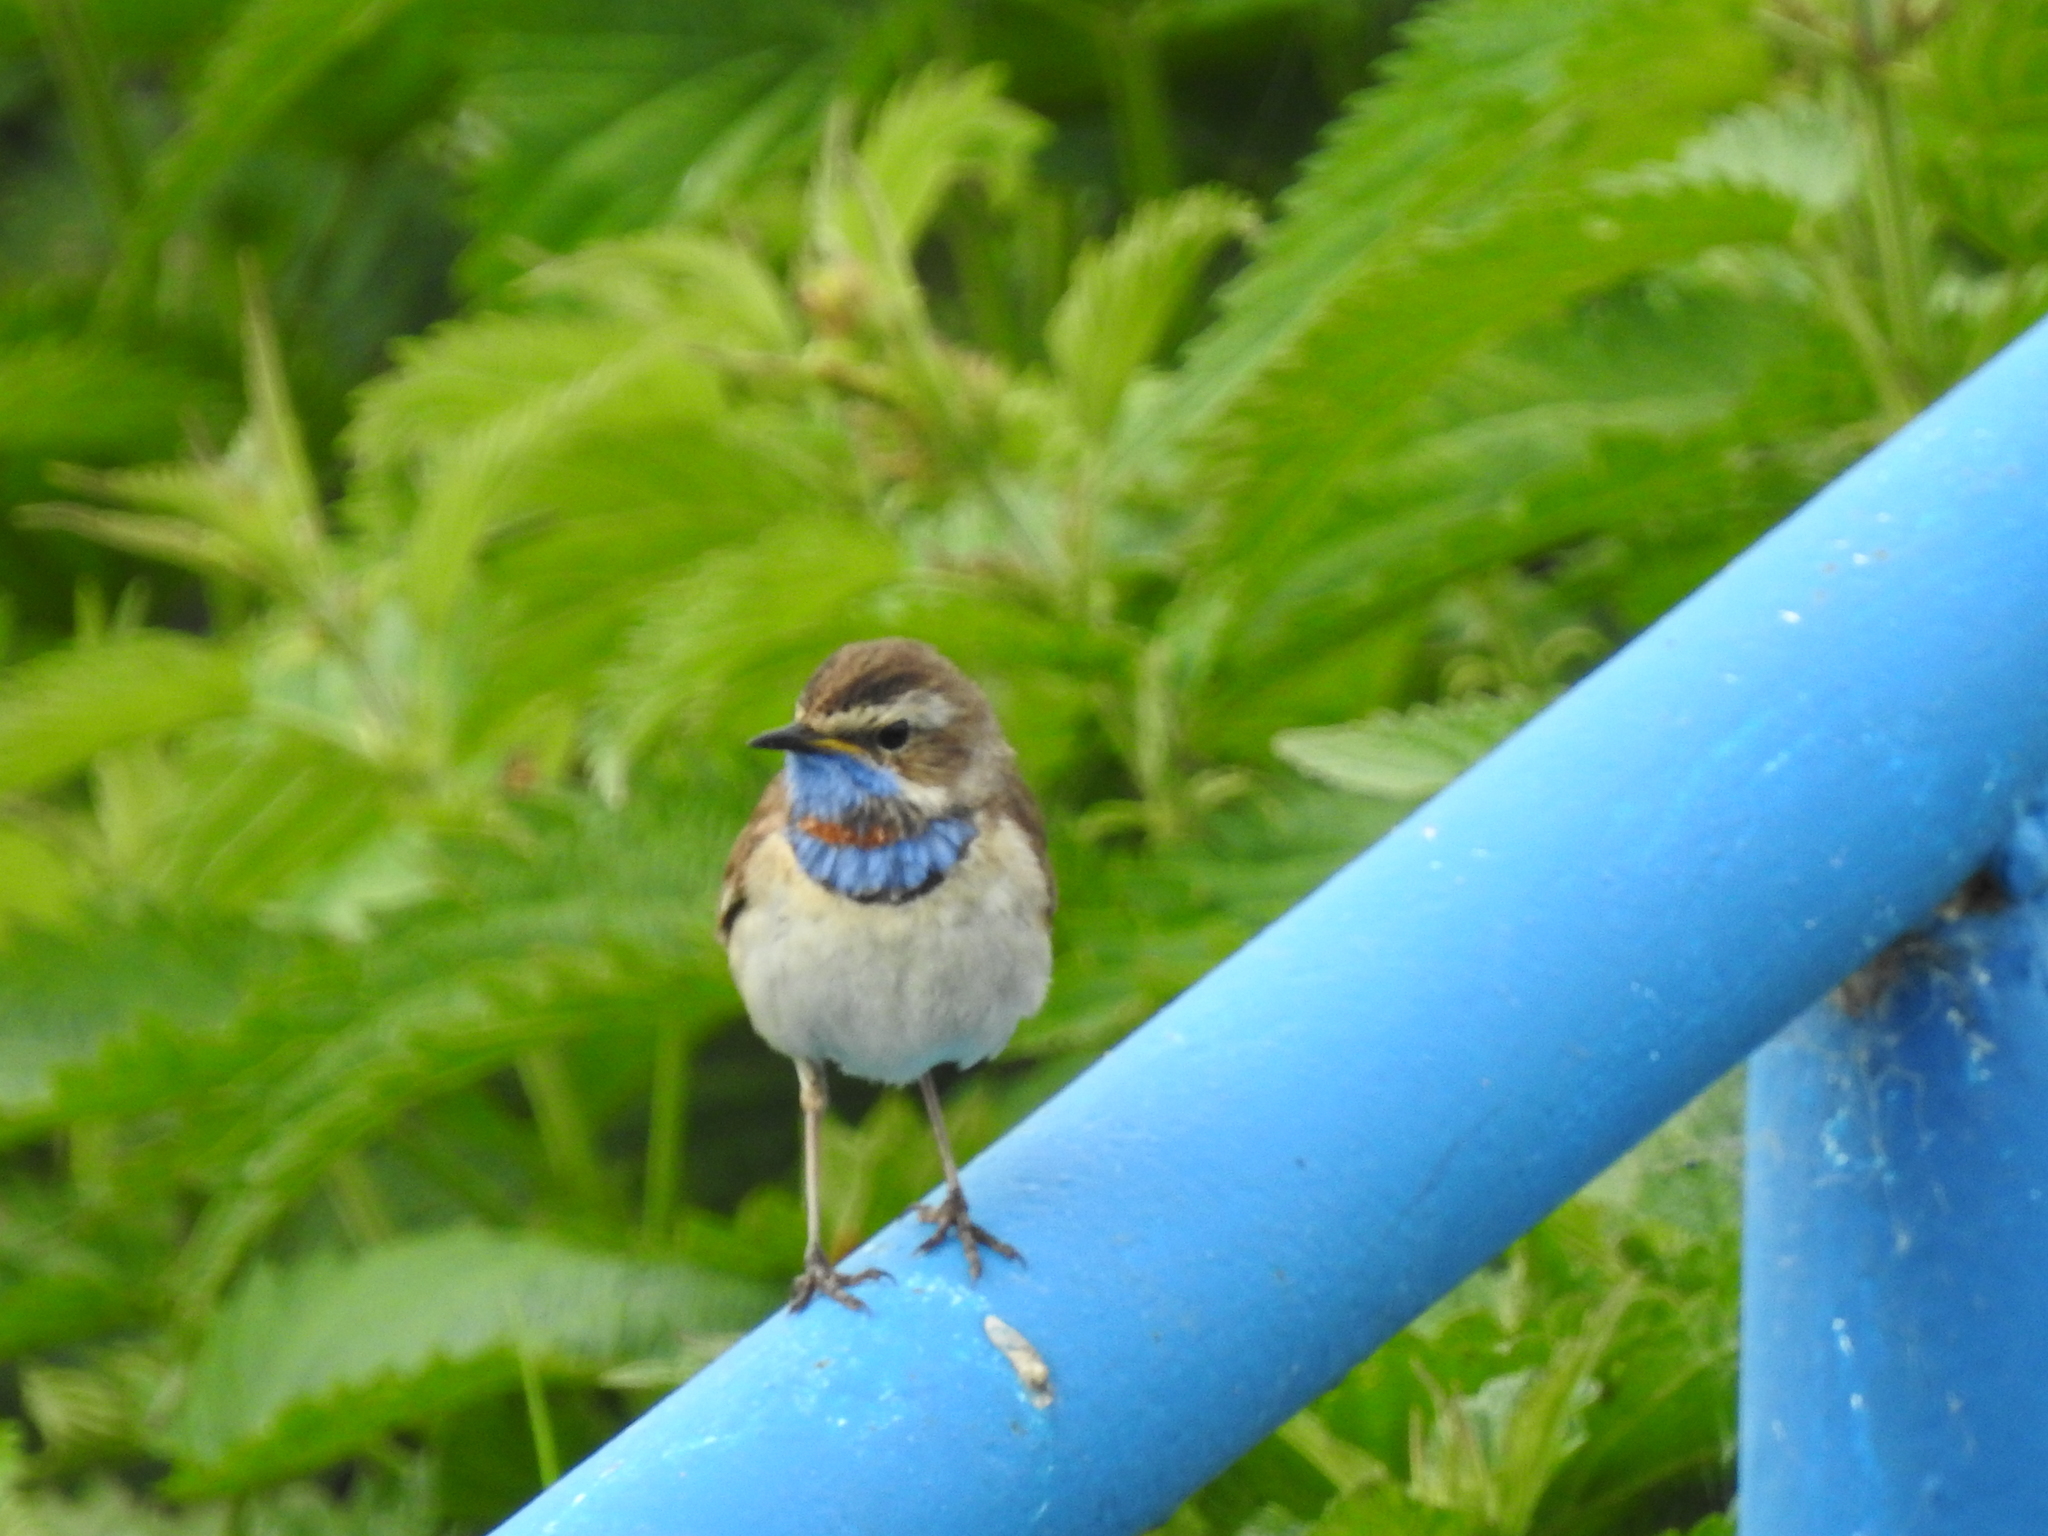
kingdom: Animalia
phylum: Chordata
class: Aves
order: Passeriformes
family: Muscicapidae
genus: Luscinia
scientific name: Luscinia svecica
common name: Bluethroat
